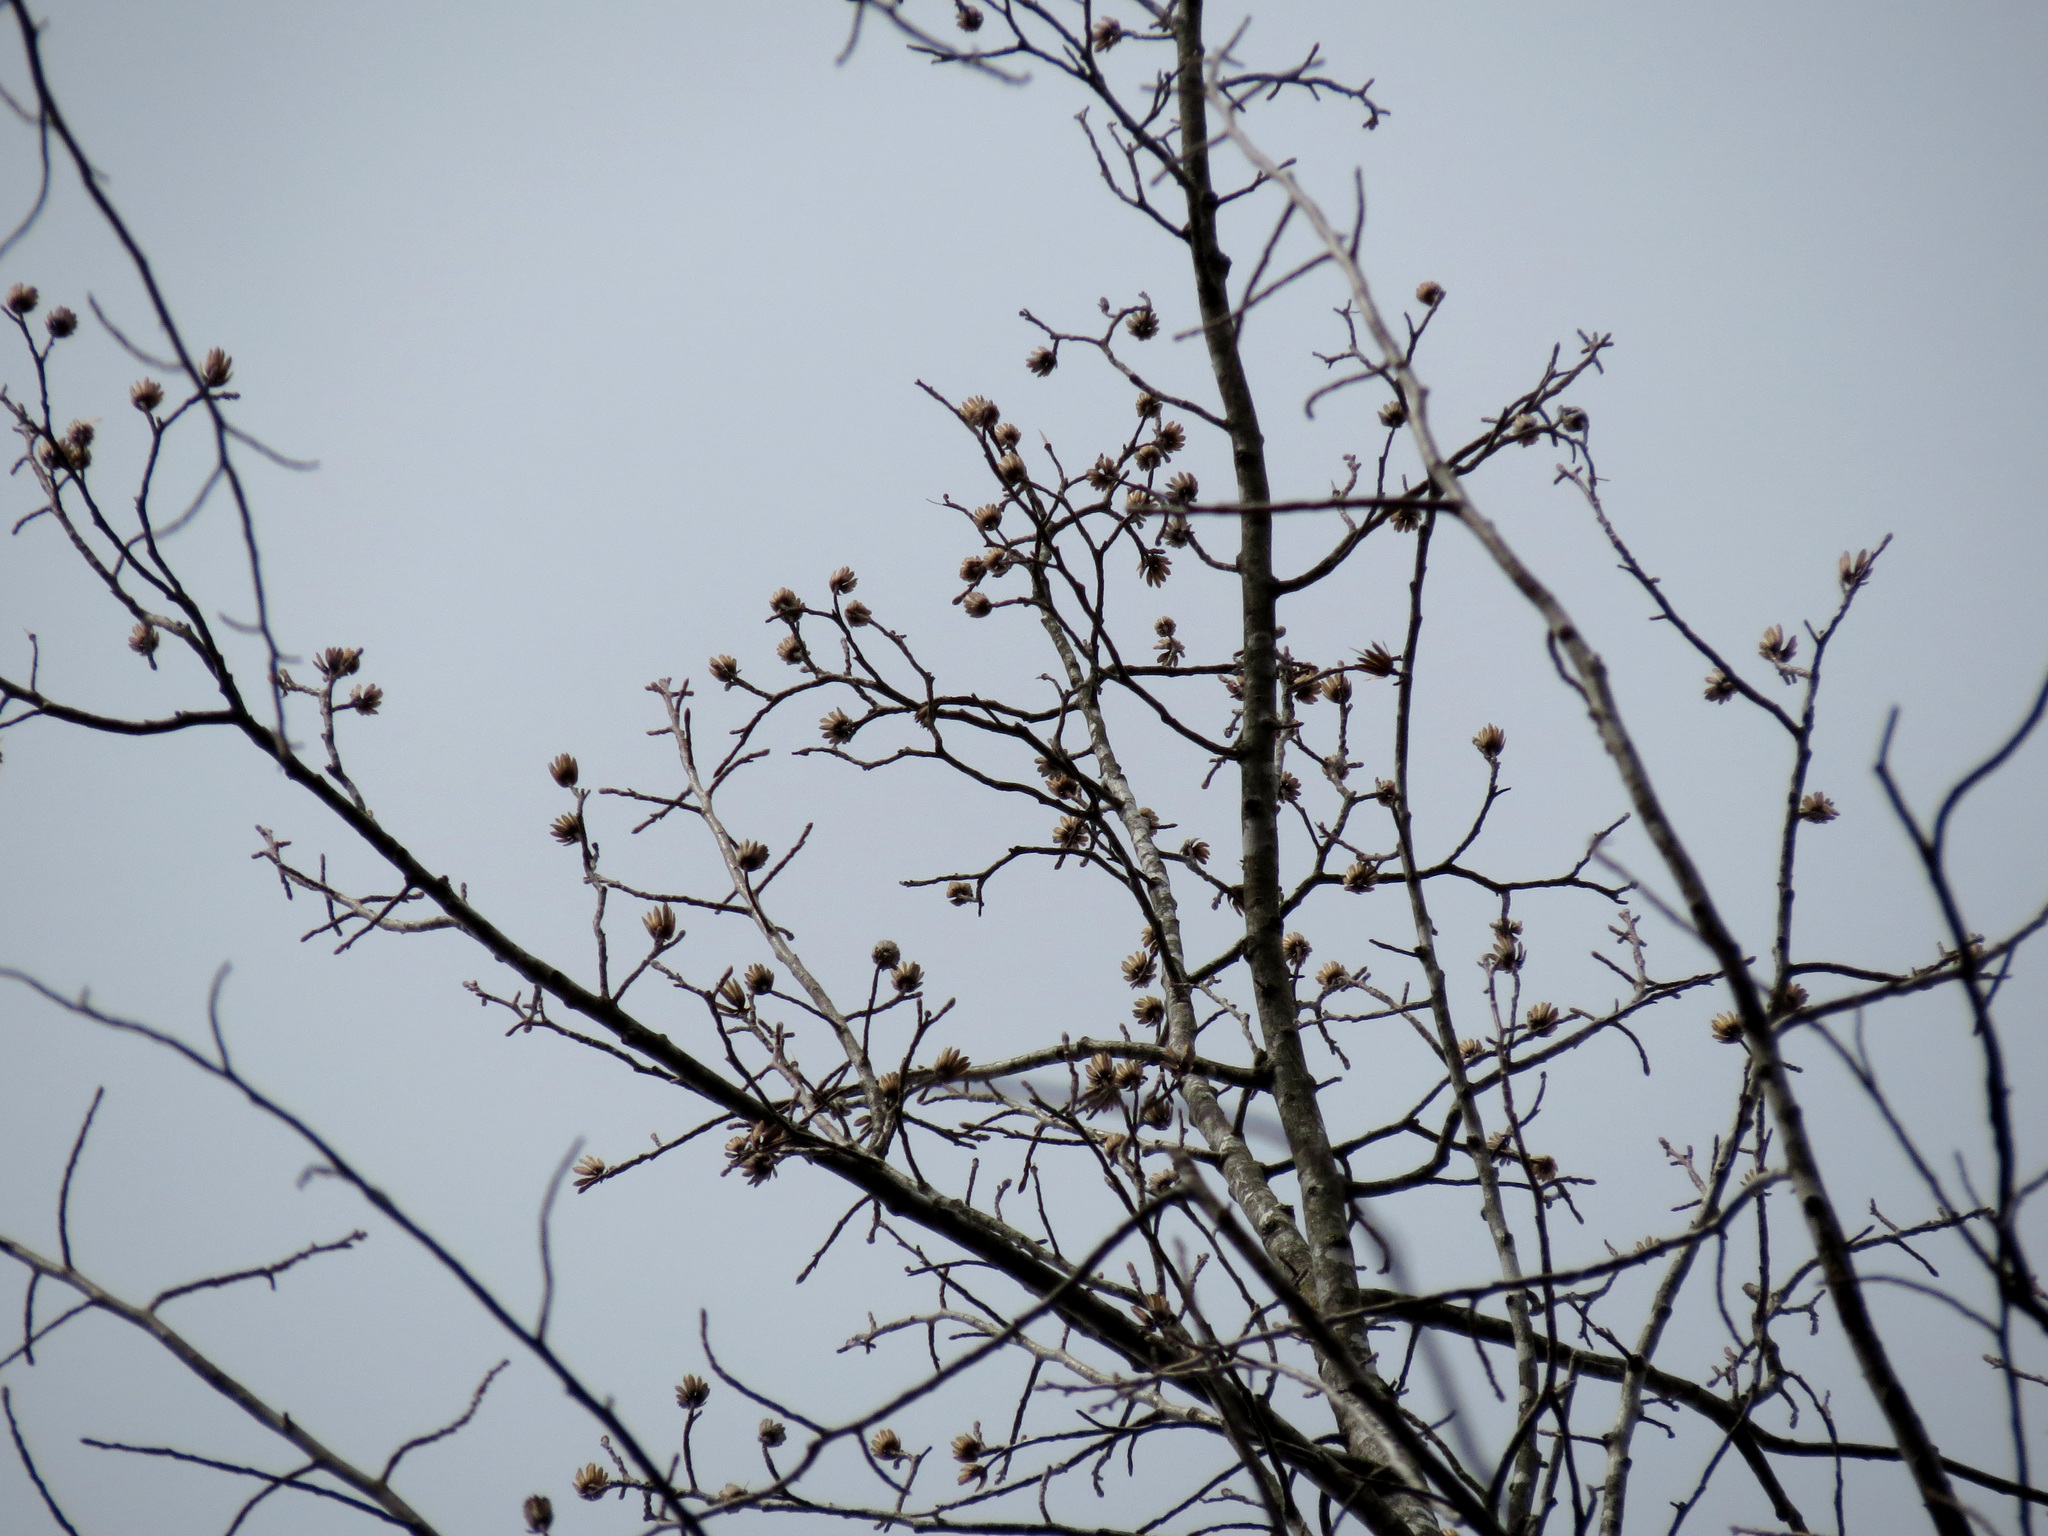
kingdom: Plantae
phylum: Tracheophyta
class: Magnoliopsida
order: Magnoliales
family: Magnoliaceae
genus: Liriodendron
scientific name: Liriodendron tulipifera
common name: Tulip tree
